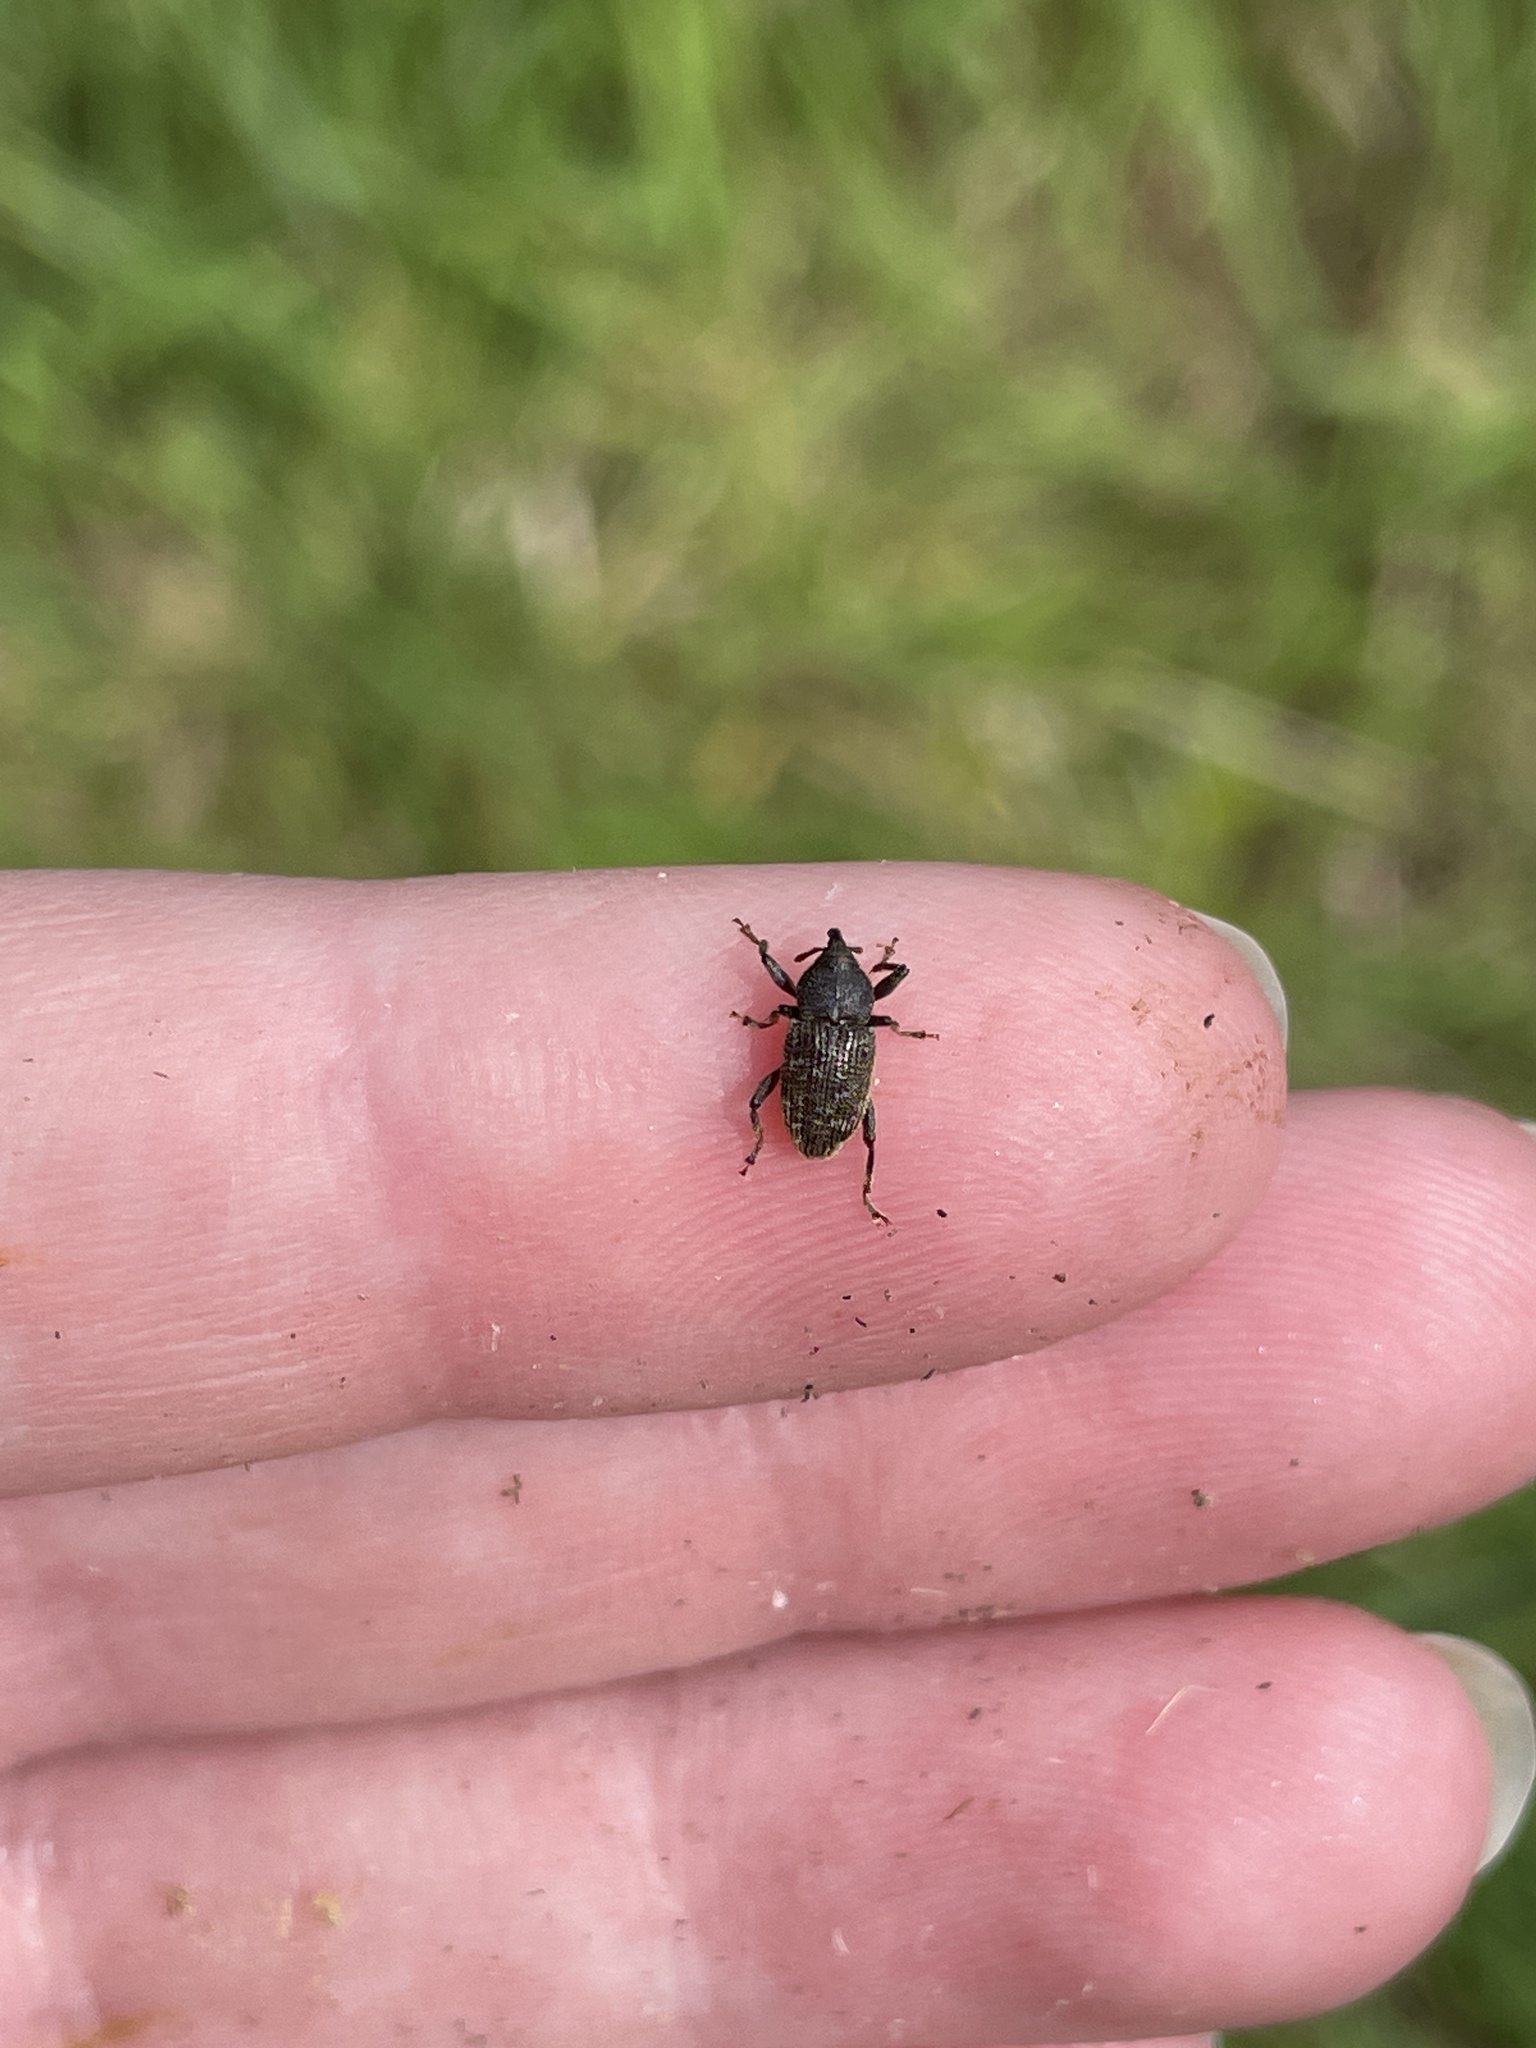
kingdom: Animalia
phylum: Arthropoda
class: Insecta
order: Coleoptera
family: Curculionidae
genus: Strongylopterus
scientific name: Strongylopterus
